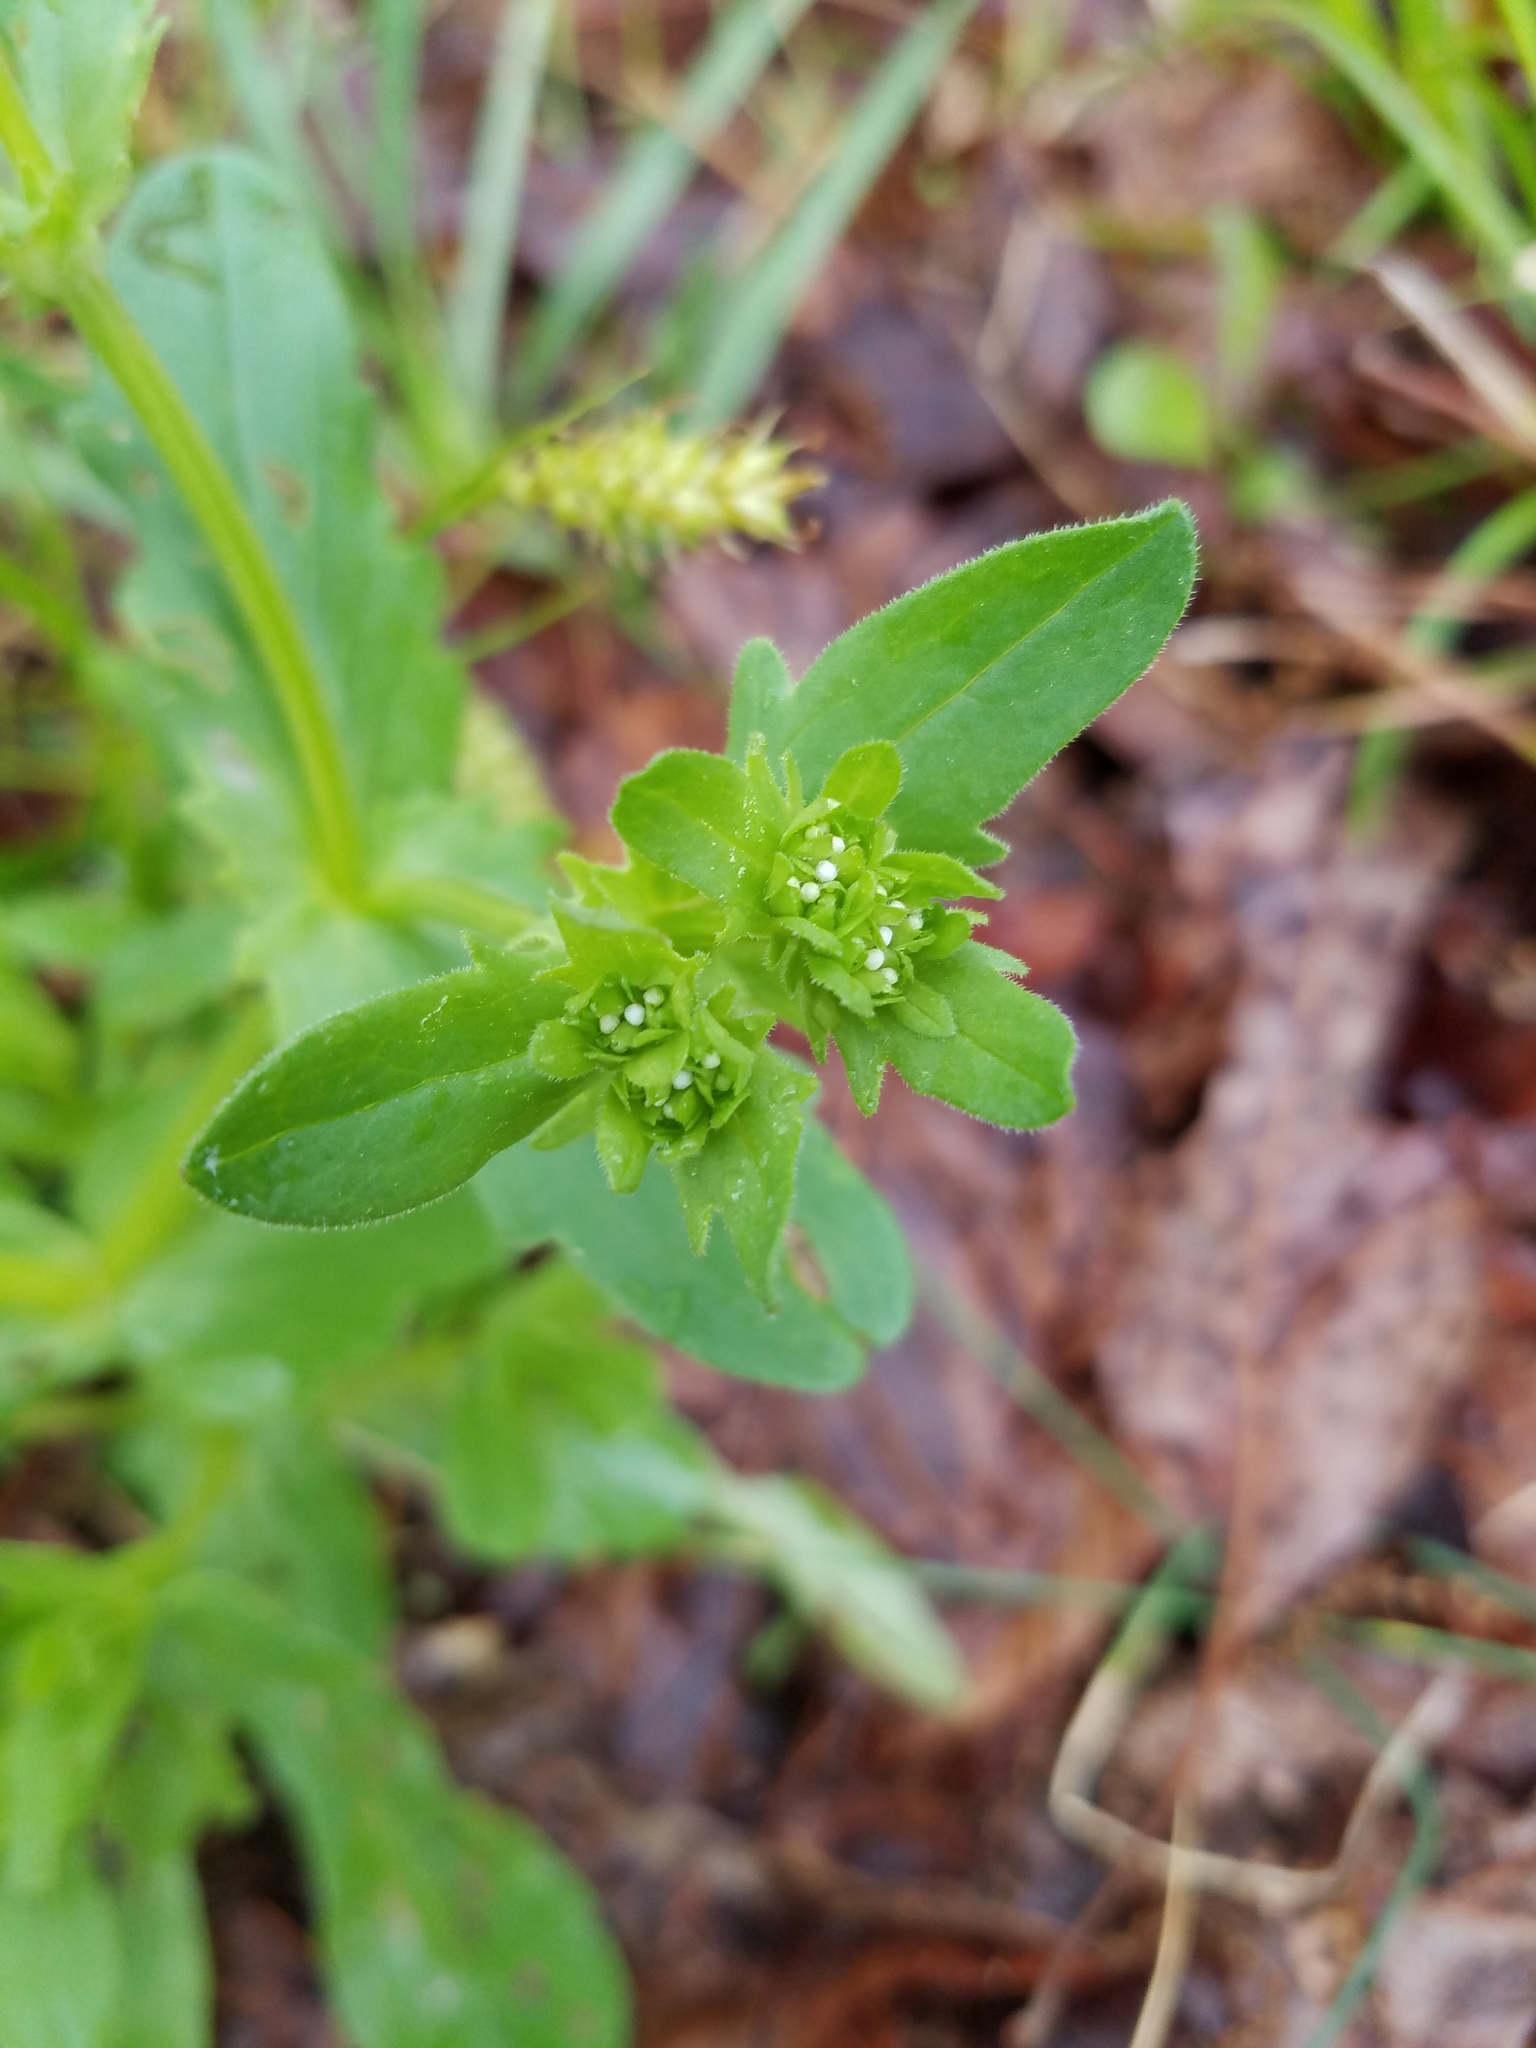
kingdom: Plantae
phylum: Tracheophyta
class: Magnoliopsida
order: Dipsacales
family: Caprifoliaceae
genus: Valerianella
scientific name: Valerianella radiata
